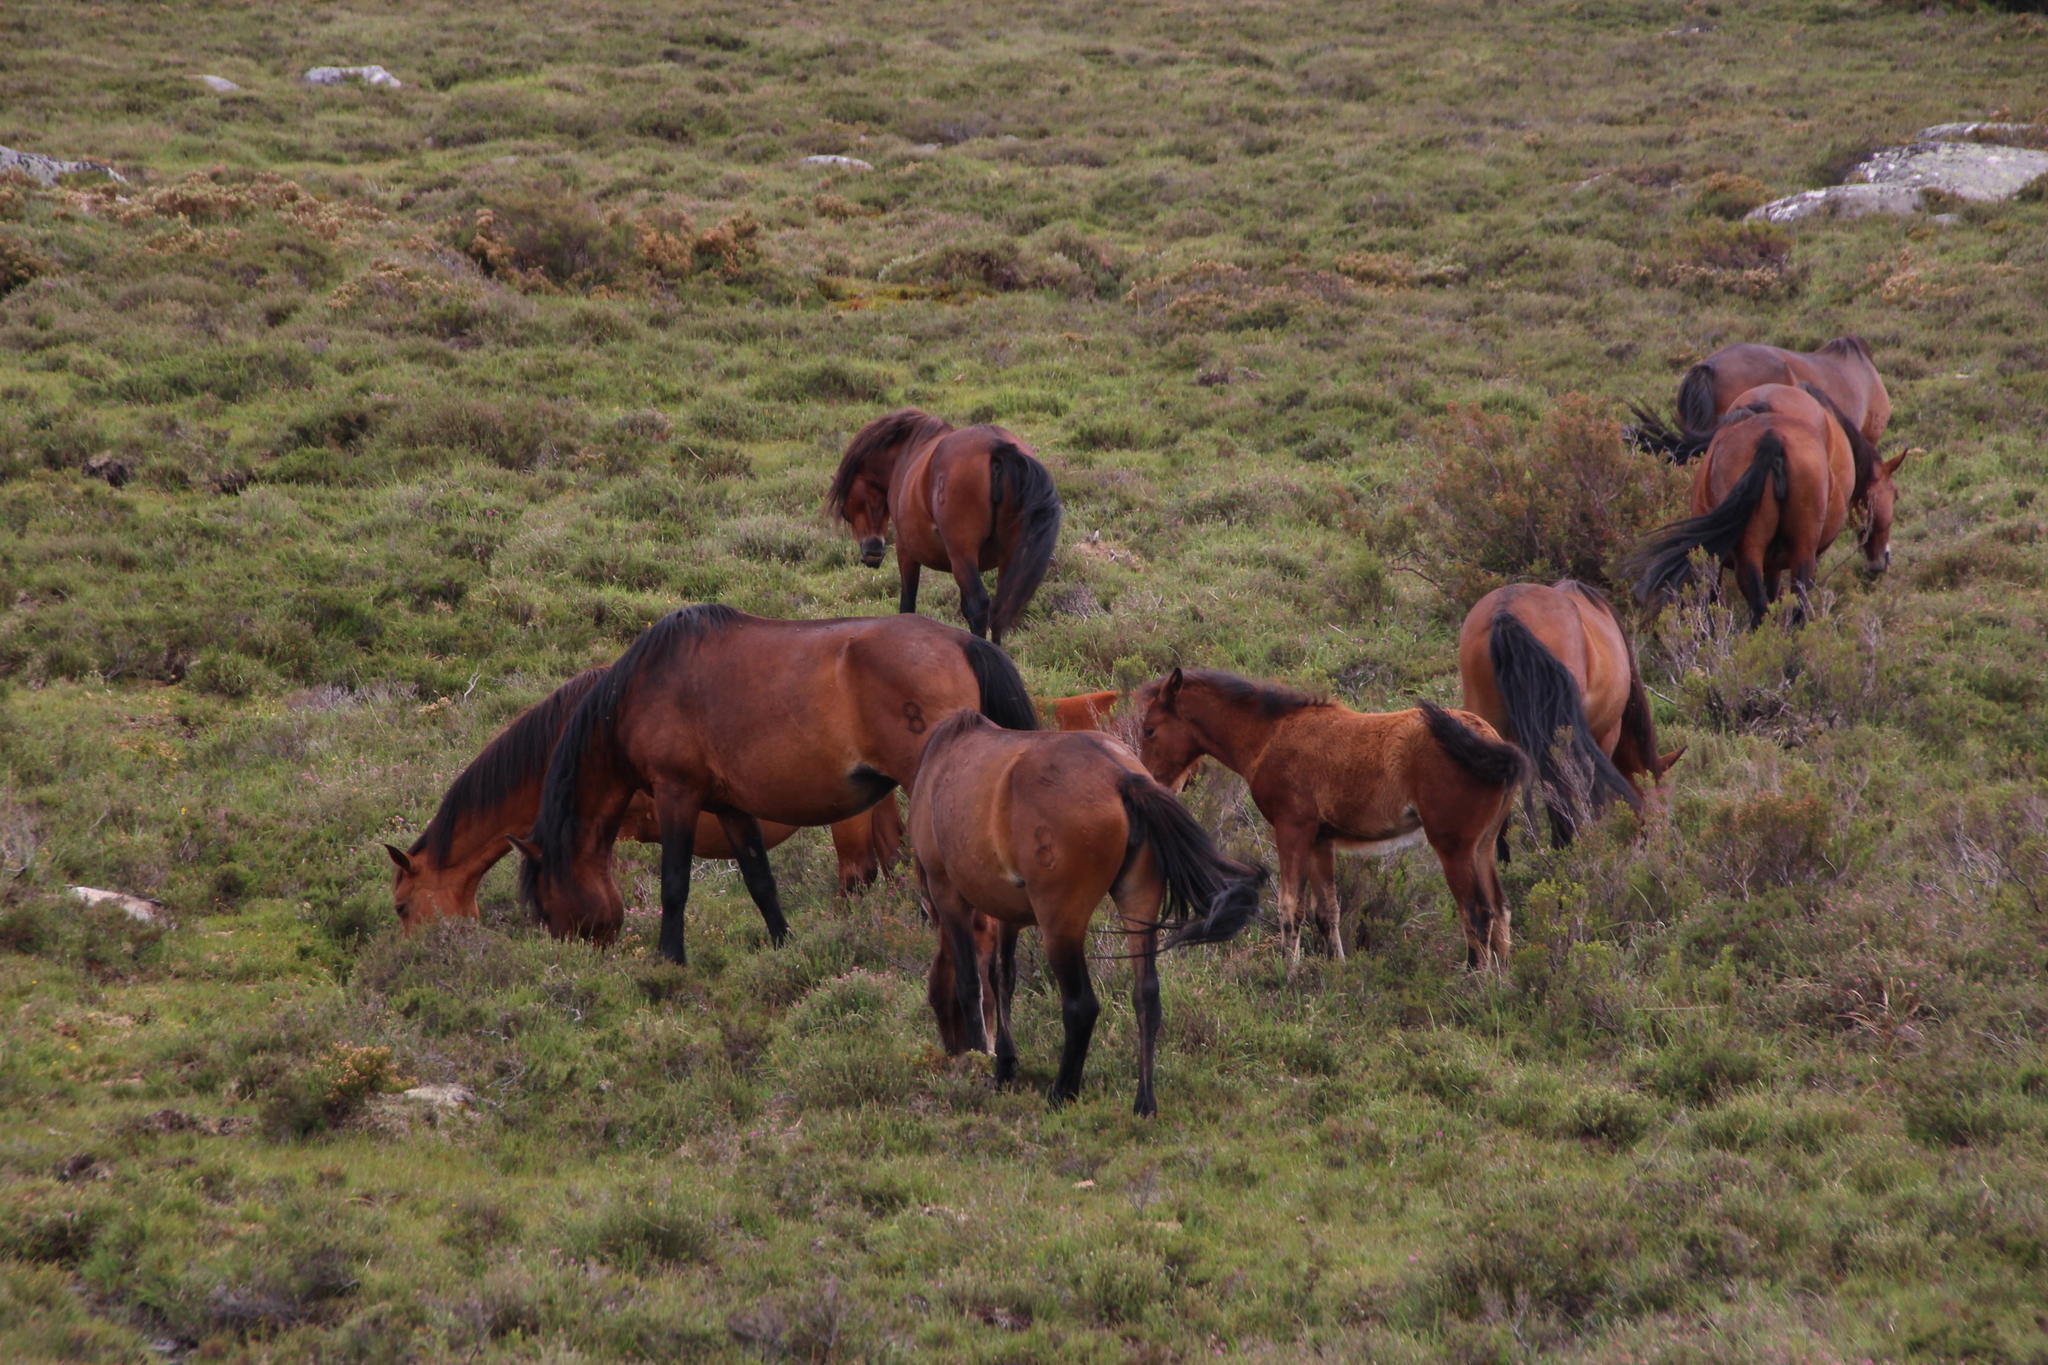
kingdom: Animalia
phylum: Chordata
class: Mammalia
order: Perissodactyla
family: Equidae
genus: Equus
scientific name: Equus caballus
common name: Horse
